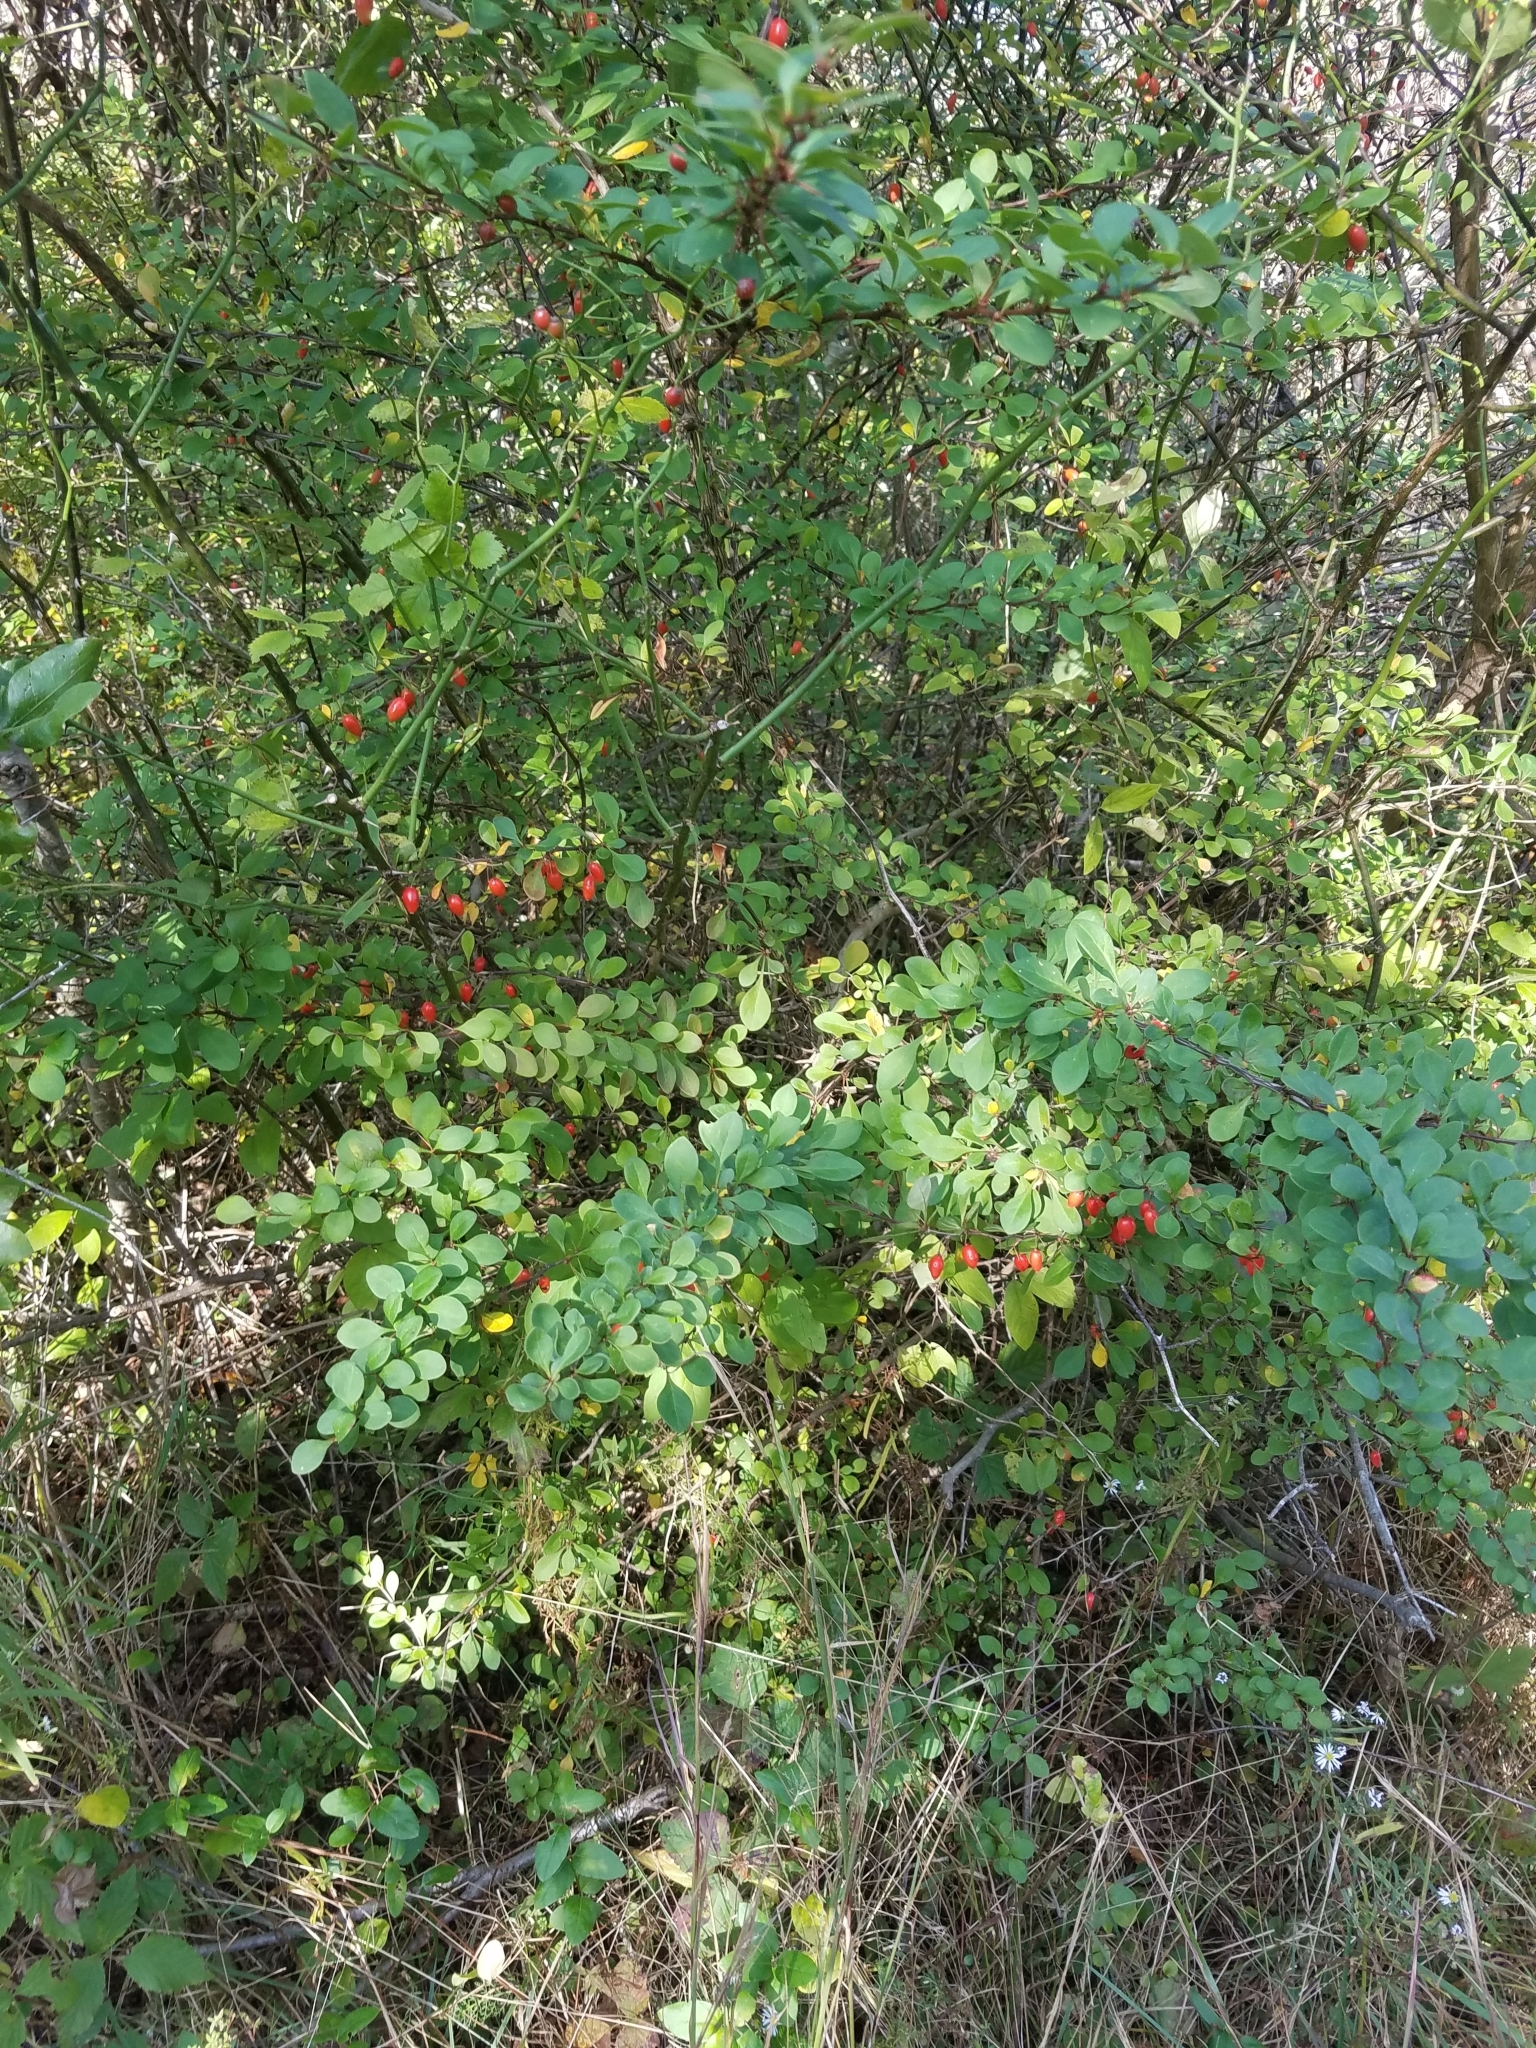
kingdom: Plantae
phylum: Tracheophyta
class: Magnoliopsida
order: Ranunculales
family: Berberidaceae
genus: Berberis
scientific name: Berberis thunbergii
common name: Japanese barberry
